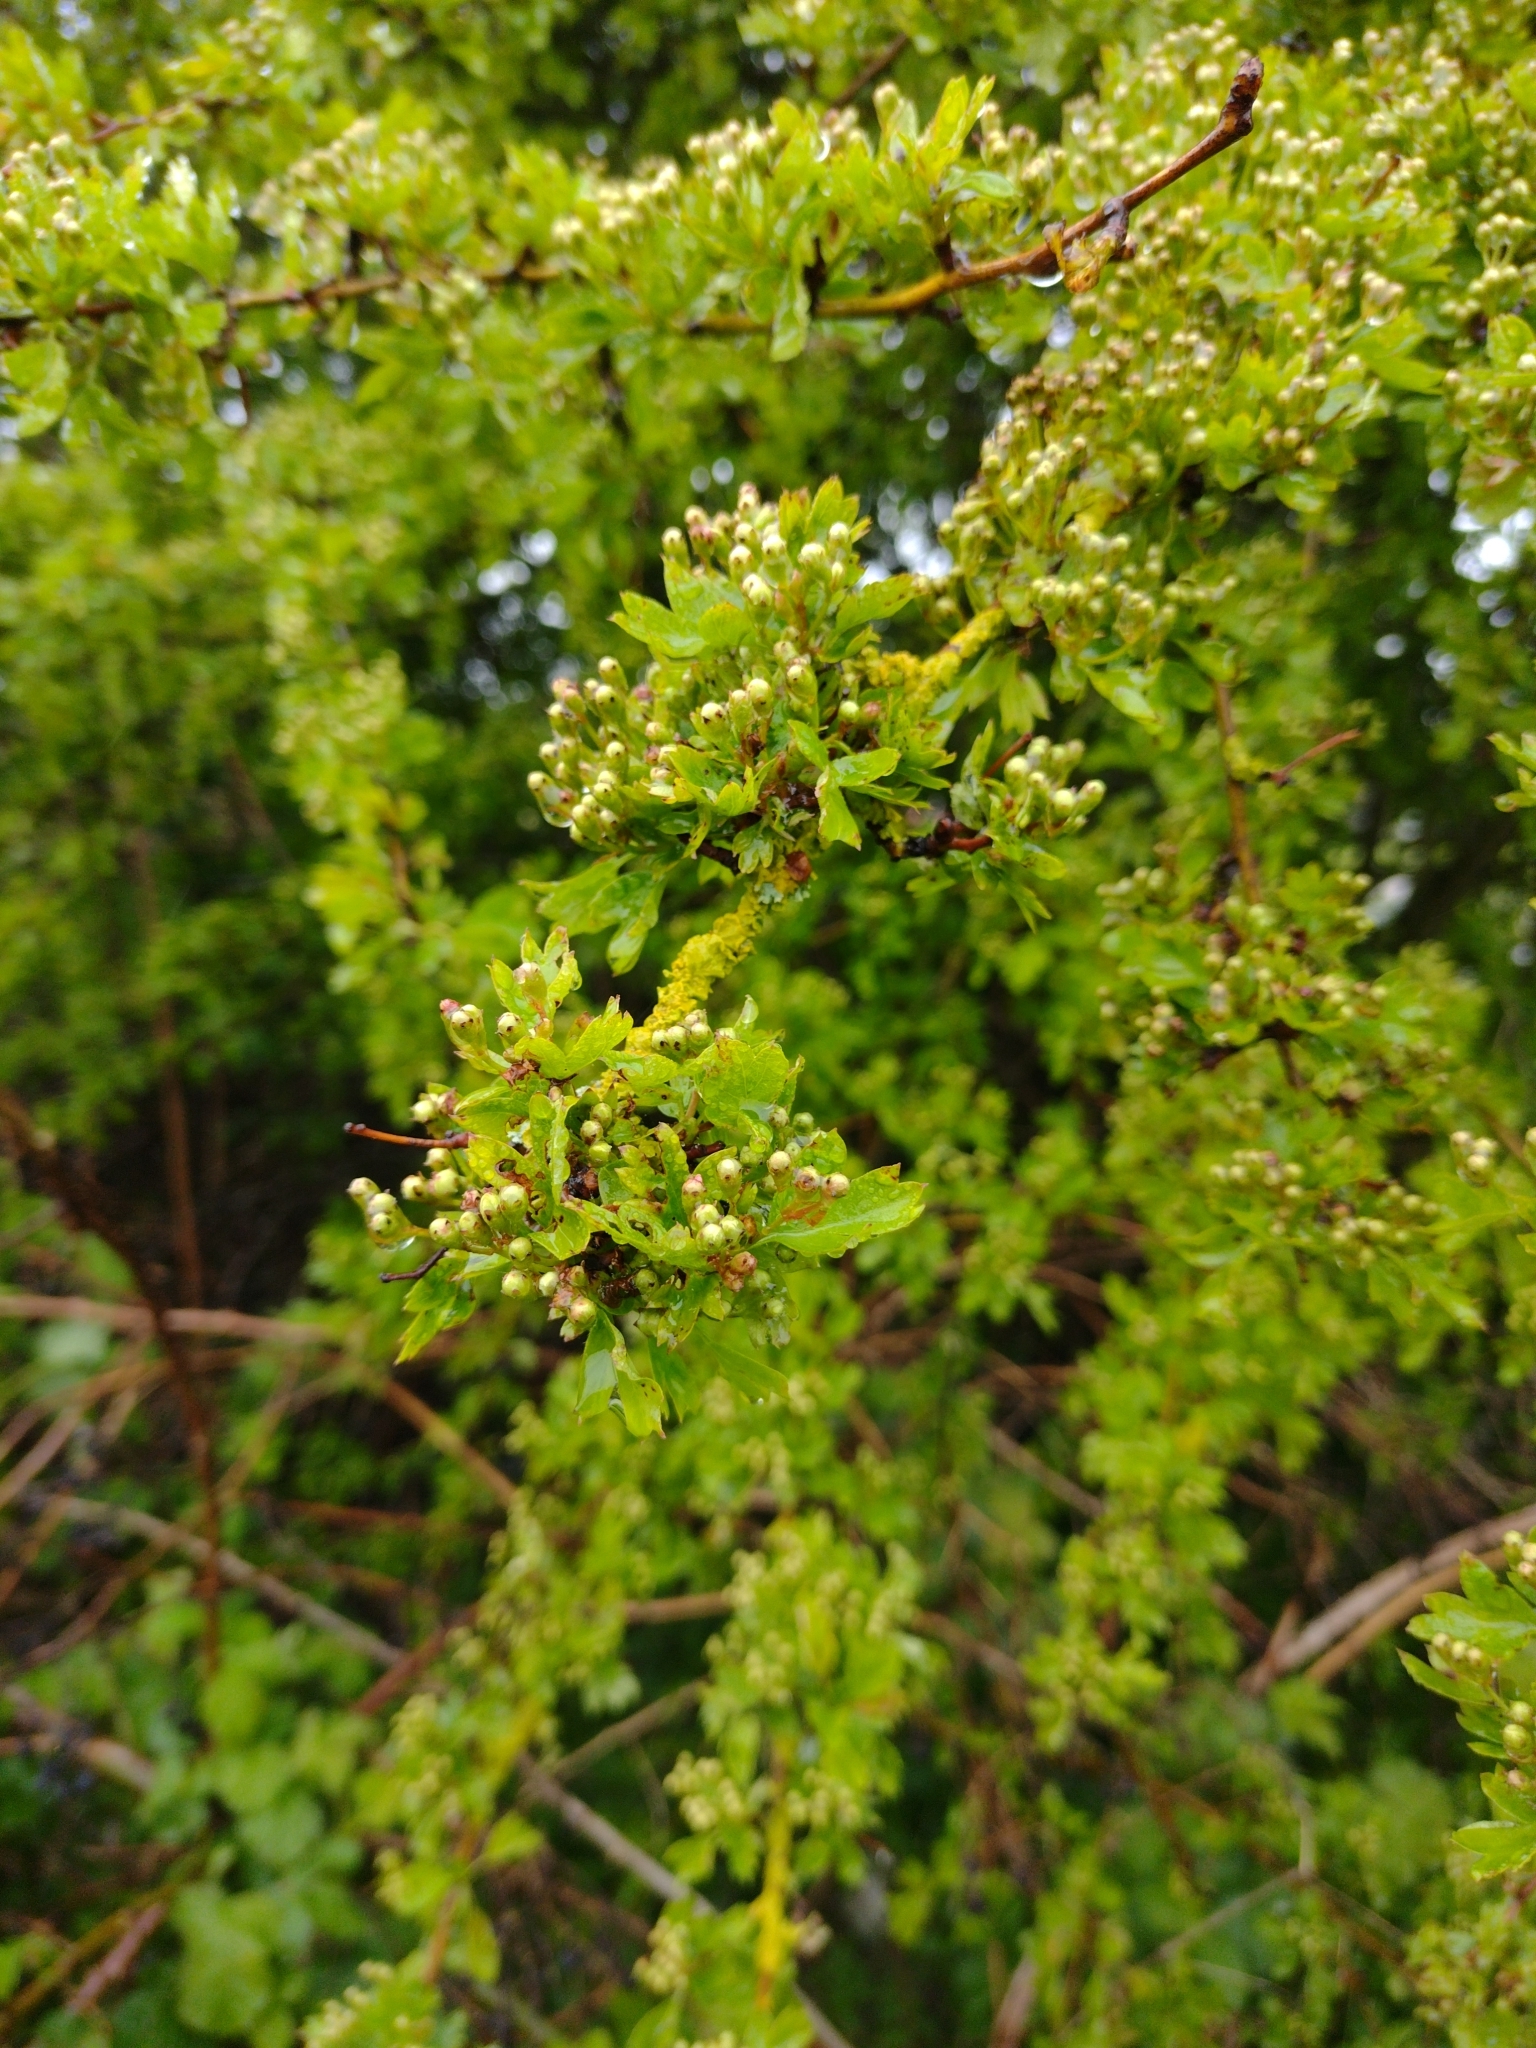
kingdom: Plantae
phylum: Tracheophyta
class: Magnoliopsida
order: Rosales
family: Rosaceae
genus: Crataegus
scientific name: Crataegus monogyna
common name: Hawthorn
